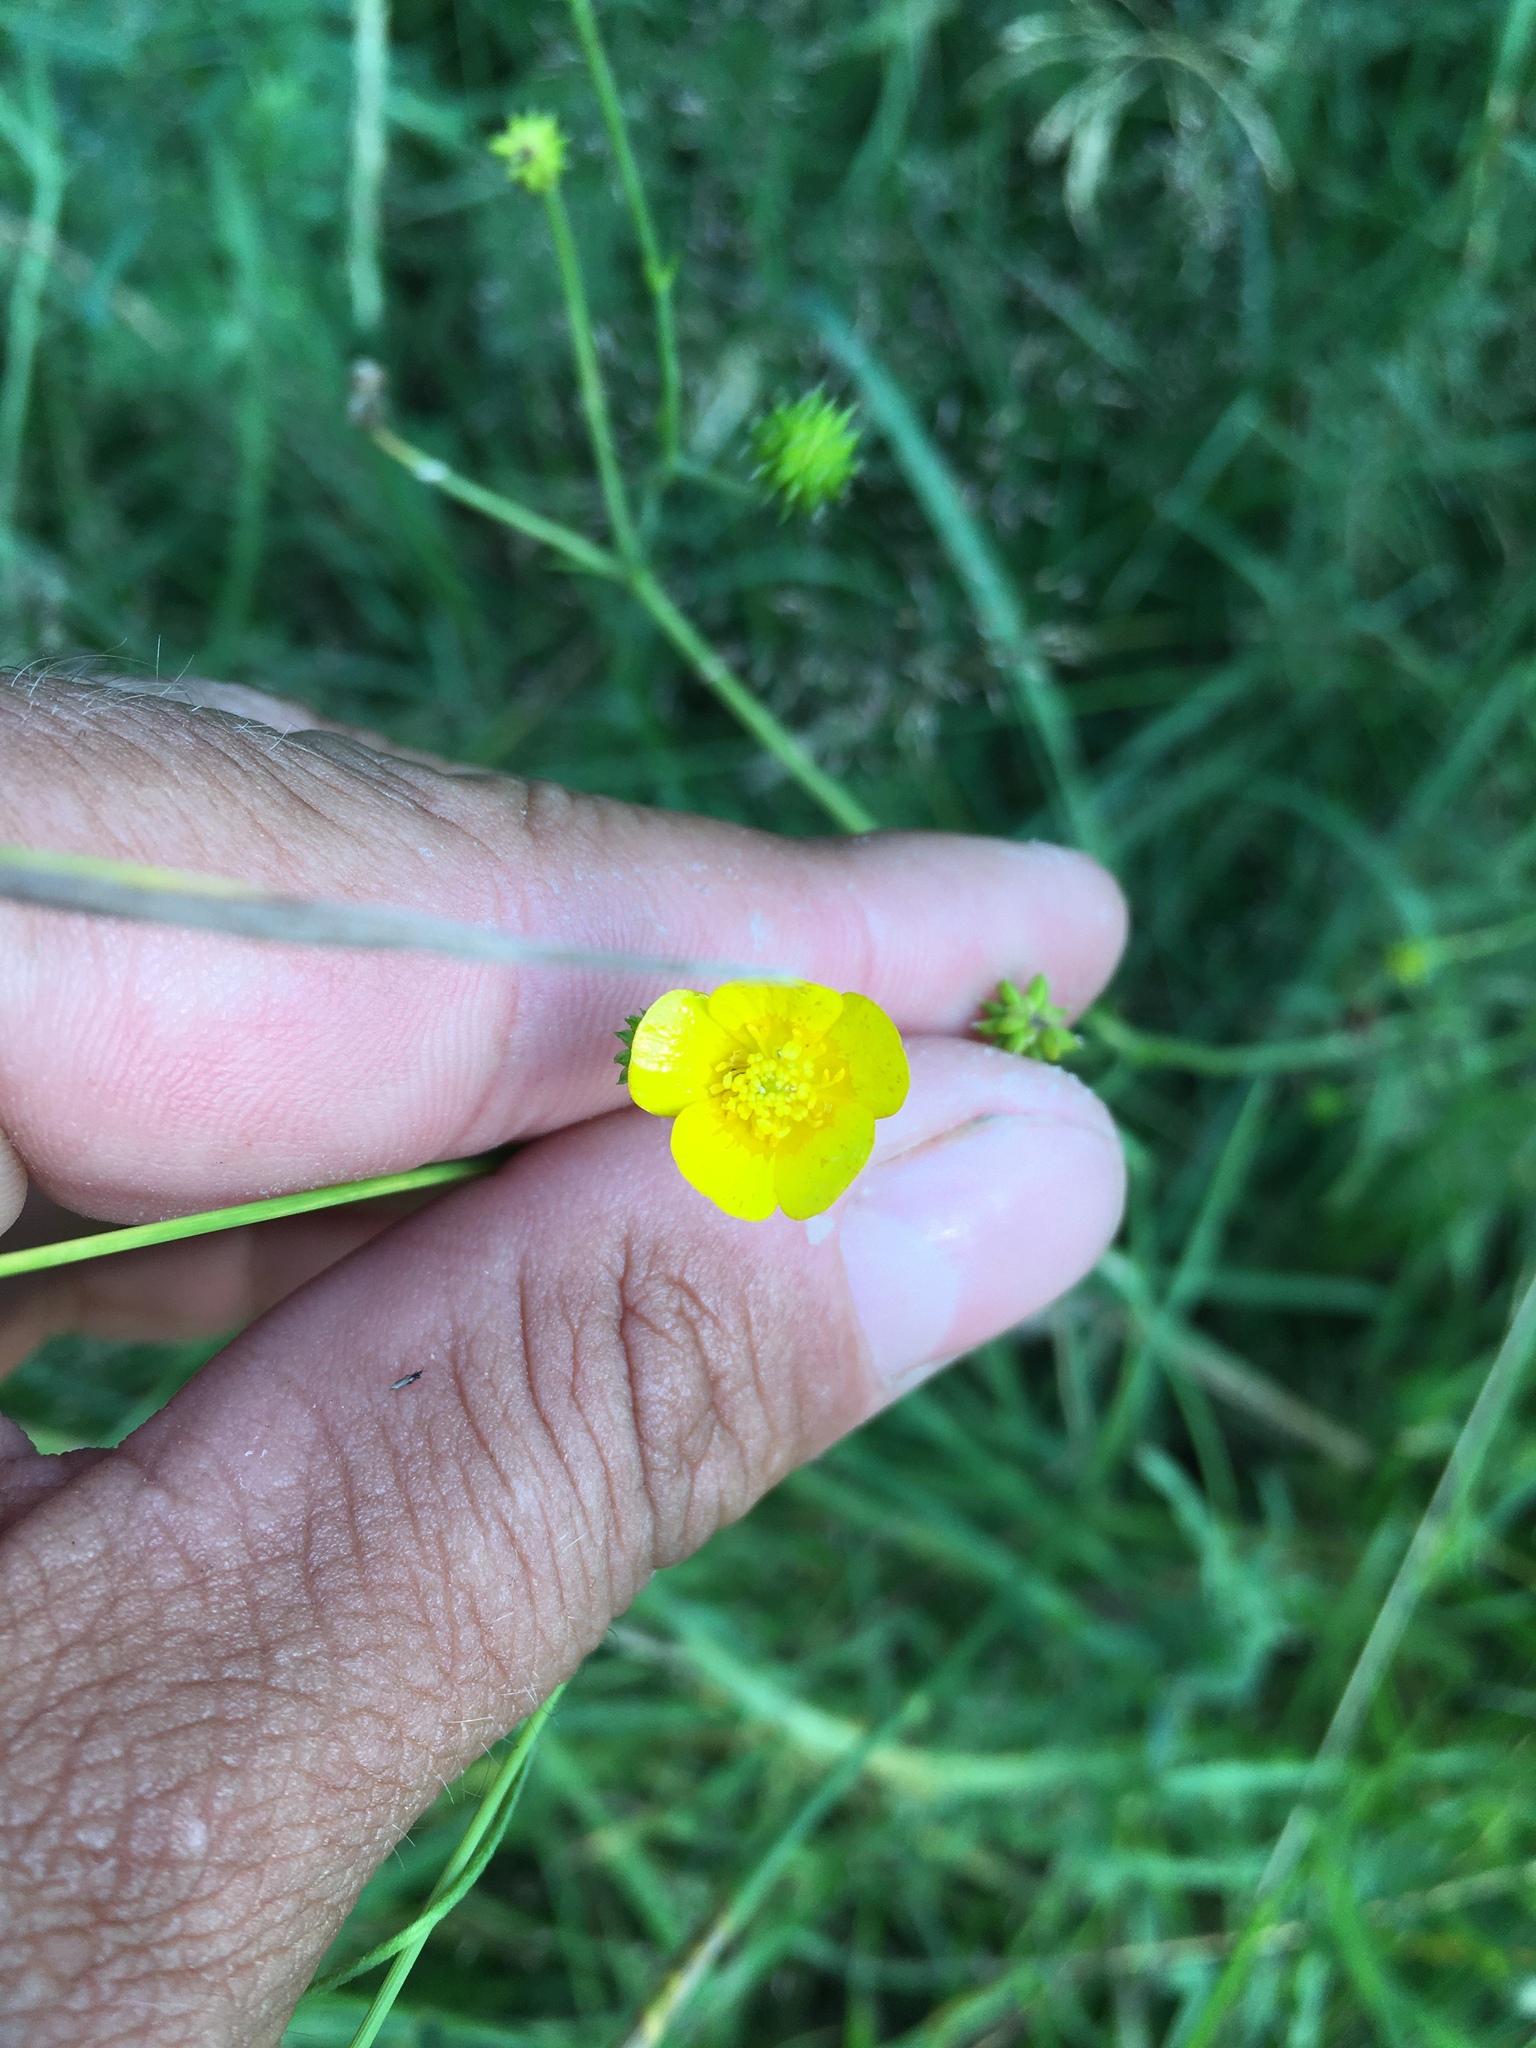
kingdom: Plantae
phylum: Tracheophyta
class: Magnoliopsida
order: Ranunculales
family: Ranunculaceae
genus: Ranunculus
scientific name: Ranunculus acris
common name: Meadow buttercup
